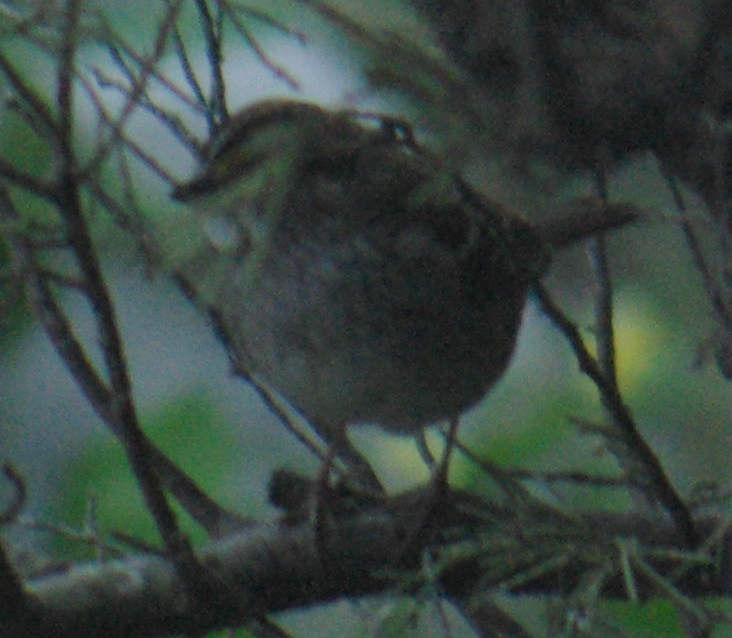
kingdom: Animalia
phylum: Chordata
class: Aves
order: Passeriformes
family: Passerellidae
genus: Zonotrichia
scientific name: Zonotrichia albicollis
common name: White-throated sparrow
